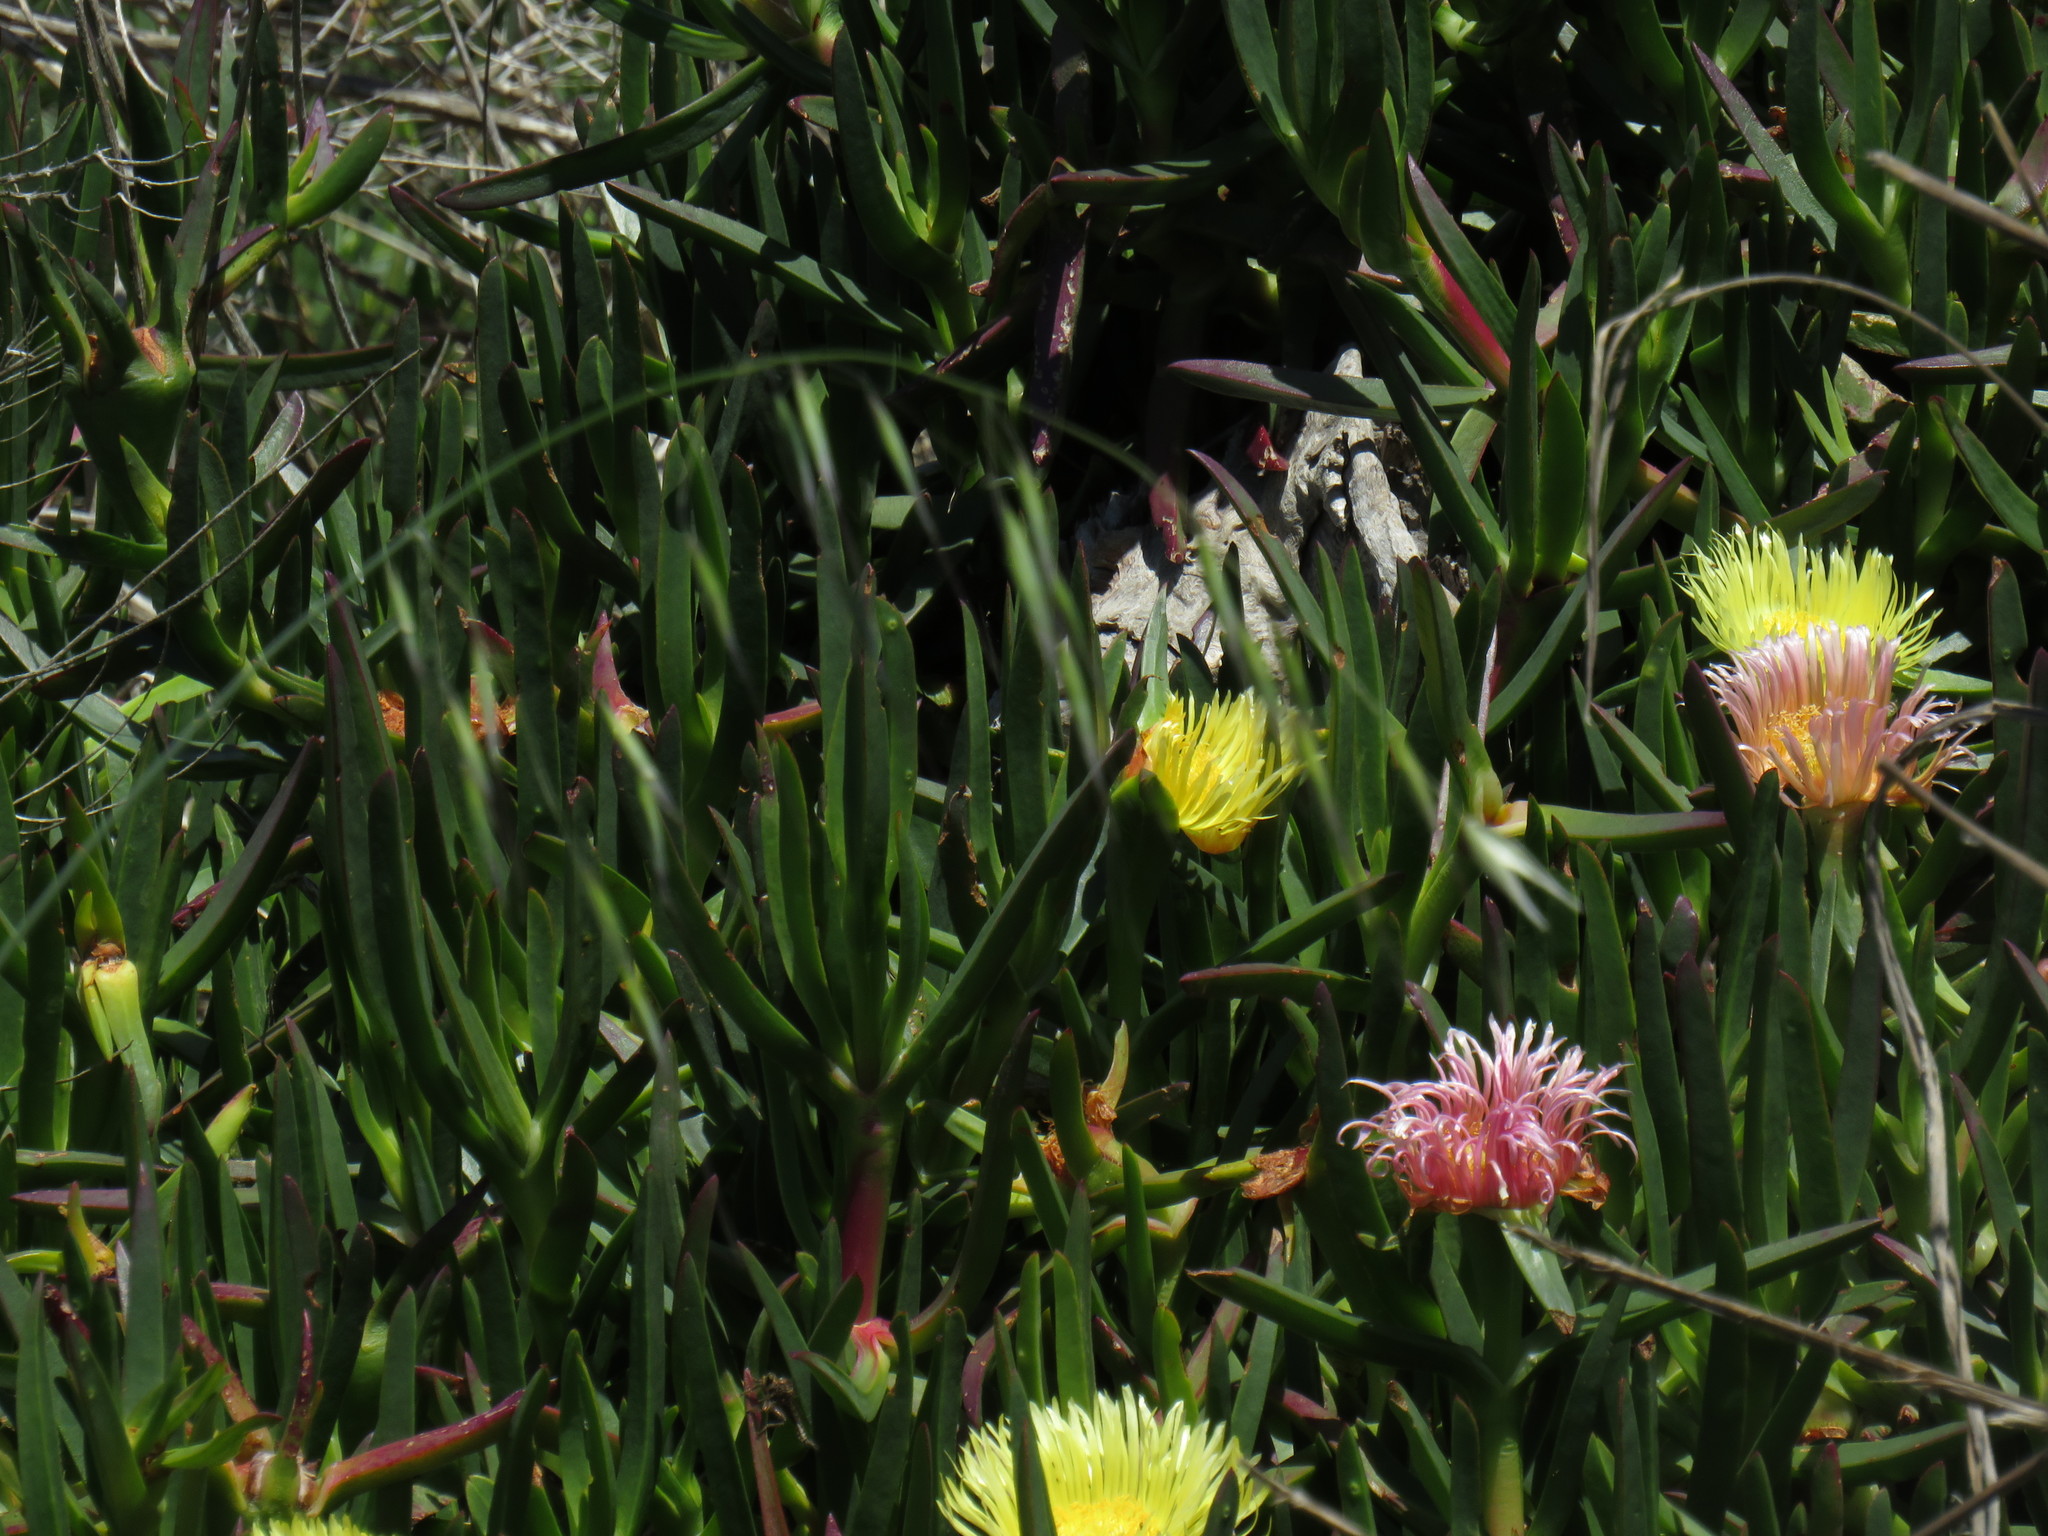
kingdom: Plantae
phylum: Tracheophyta
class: Magnoliopsida
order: Caryophyllales
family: Aizoaceae
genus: Carpobrotus
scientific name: Carpobrotus edulis
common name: Hottentot-fig
